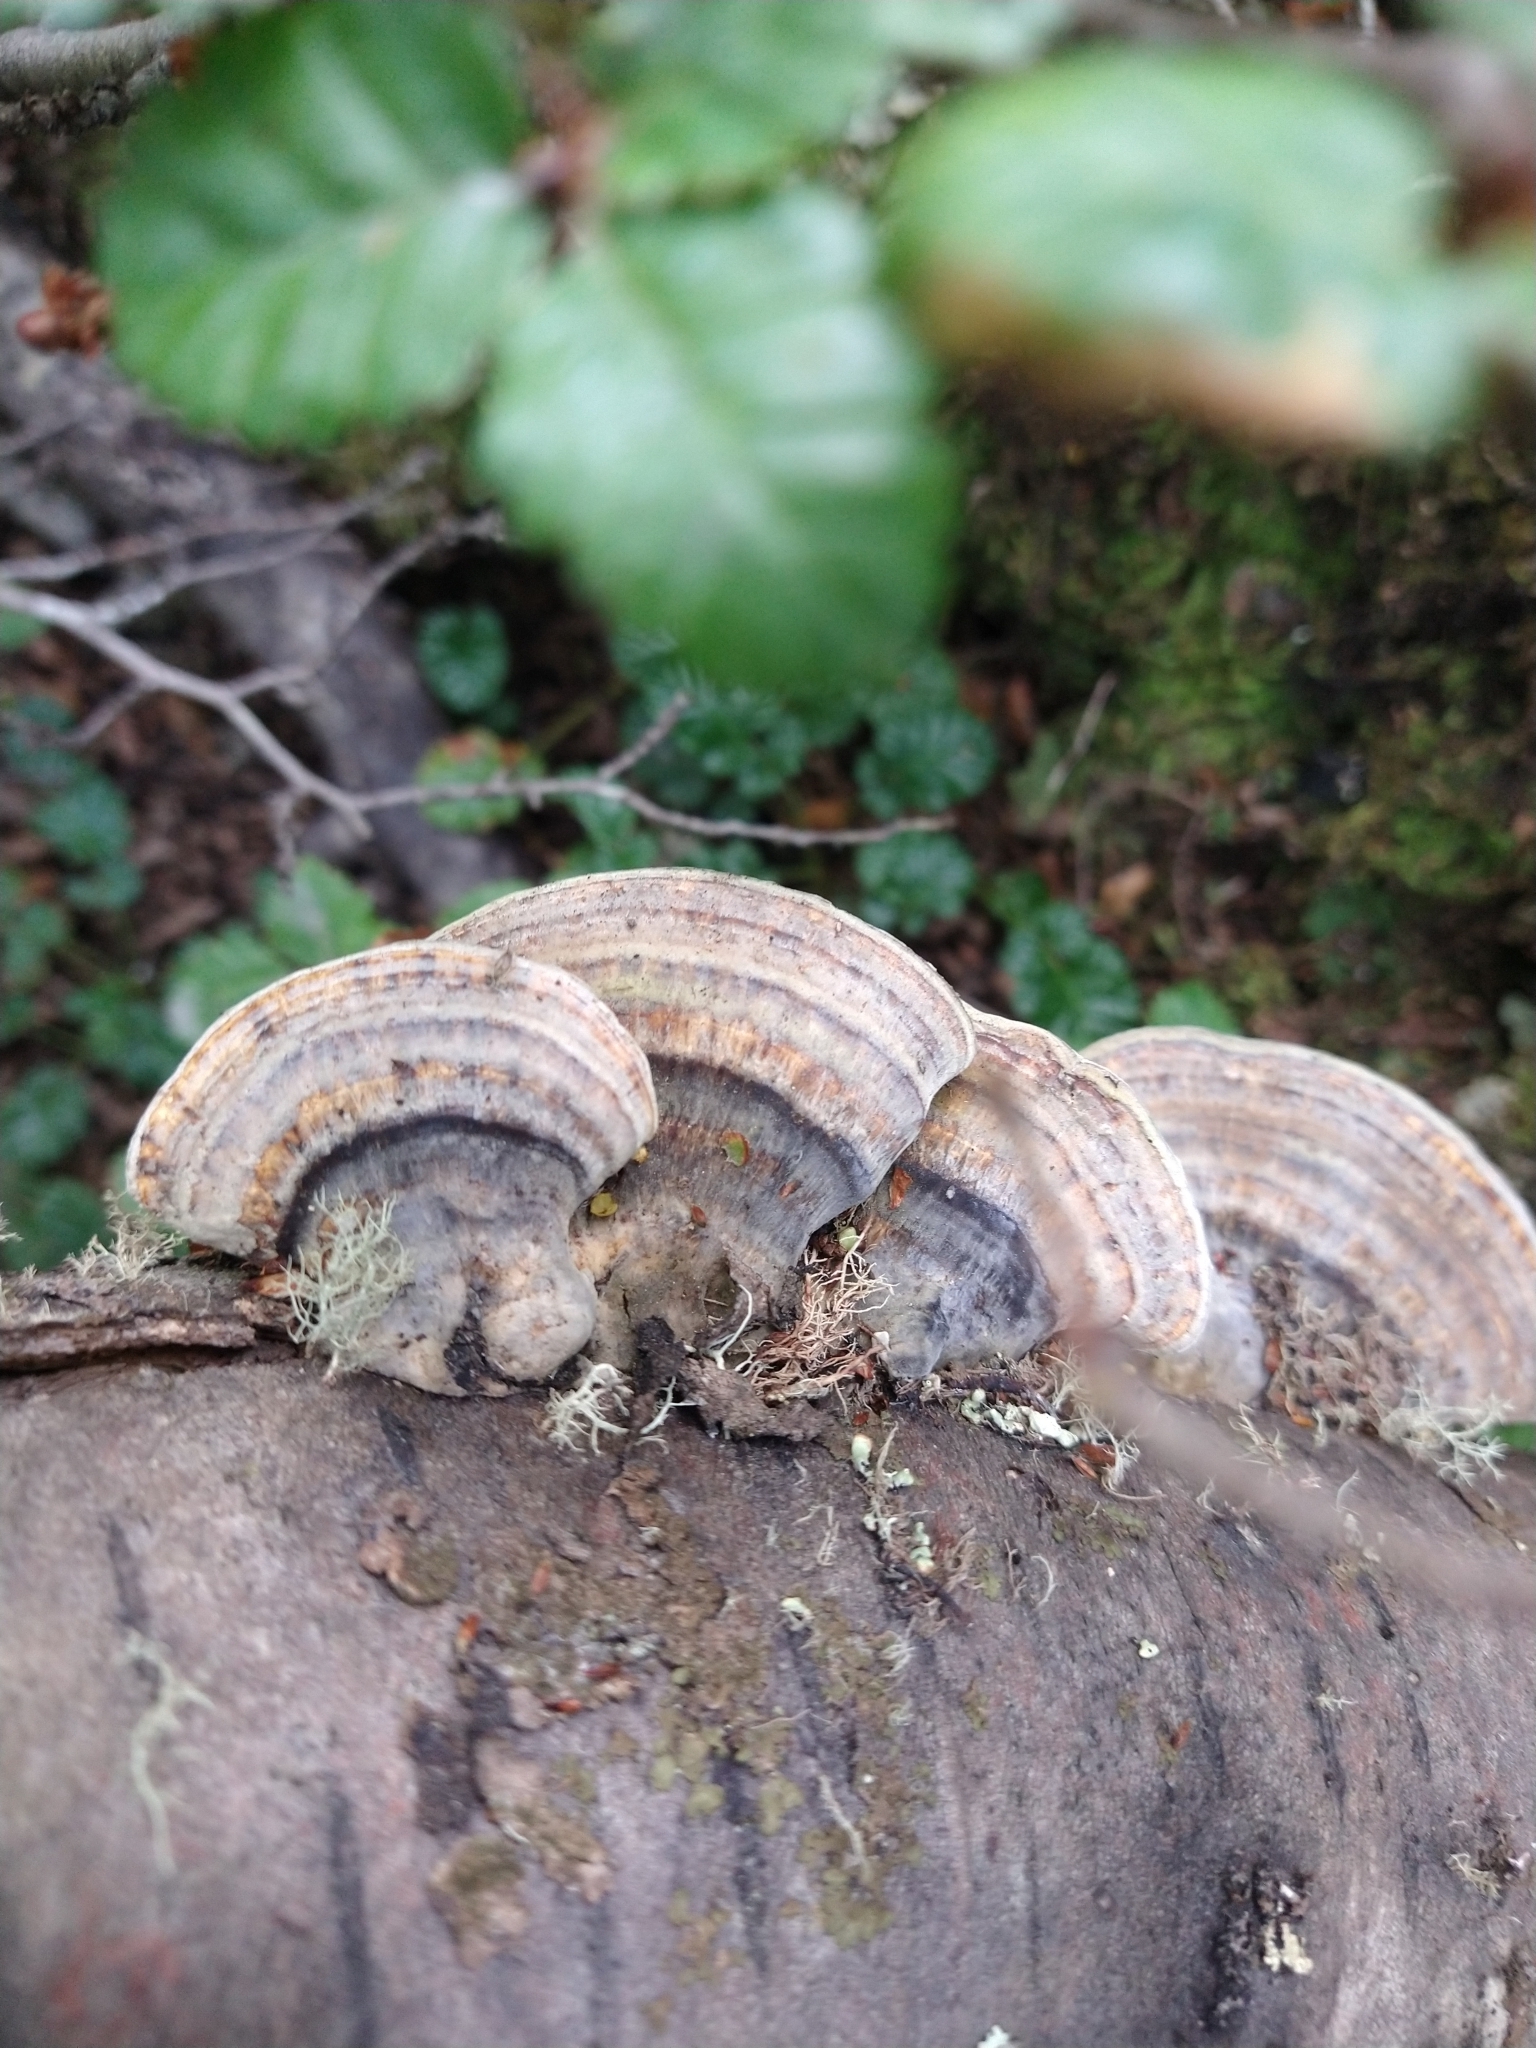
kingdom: Fungi
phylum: Basidiomycota
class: Agaricomycetes
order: Polyporales
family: Polyporaceae
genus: Trametes
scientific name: Trametes versicolor
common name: Turkeytail
